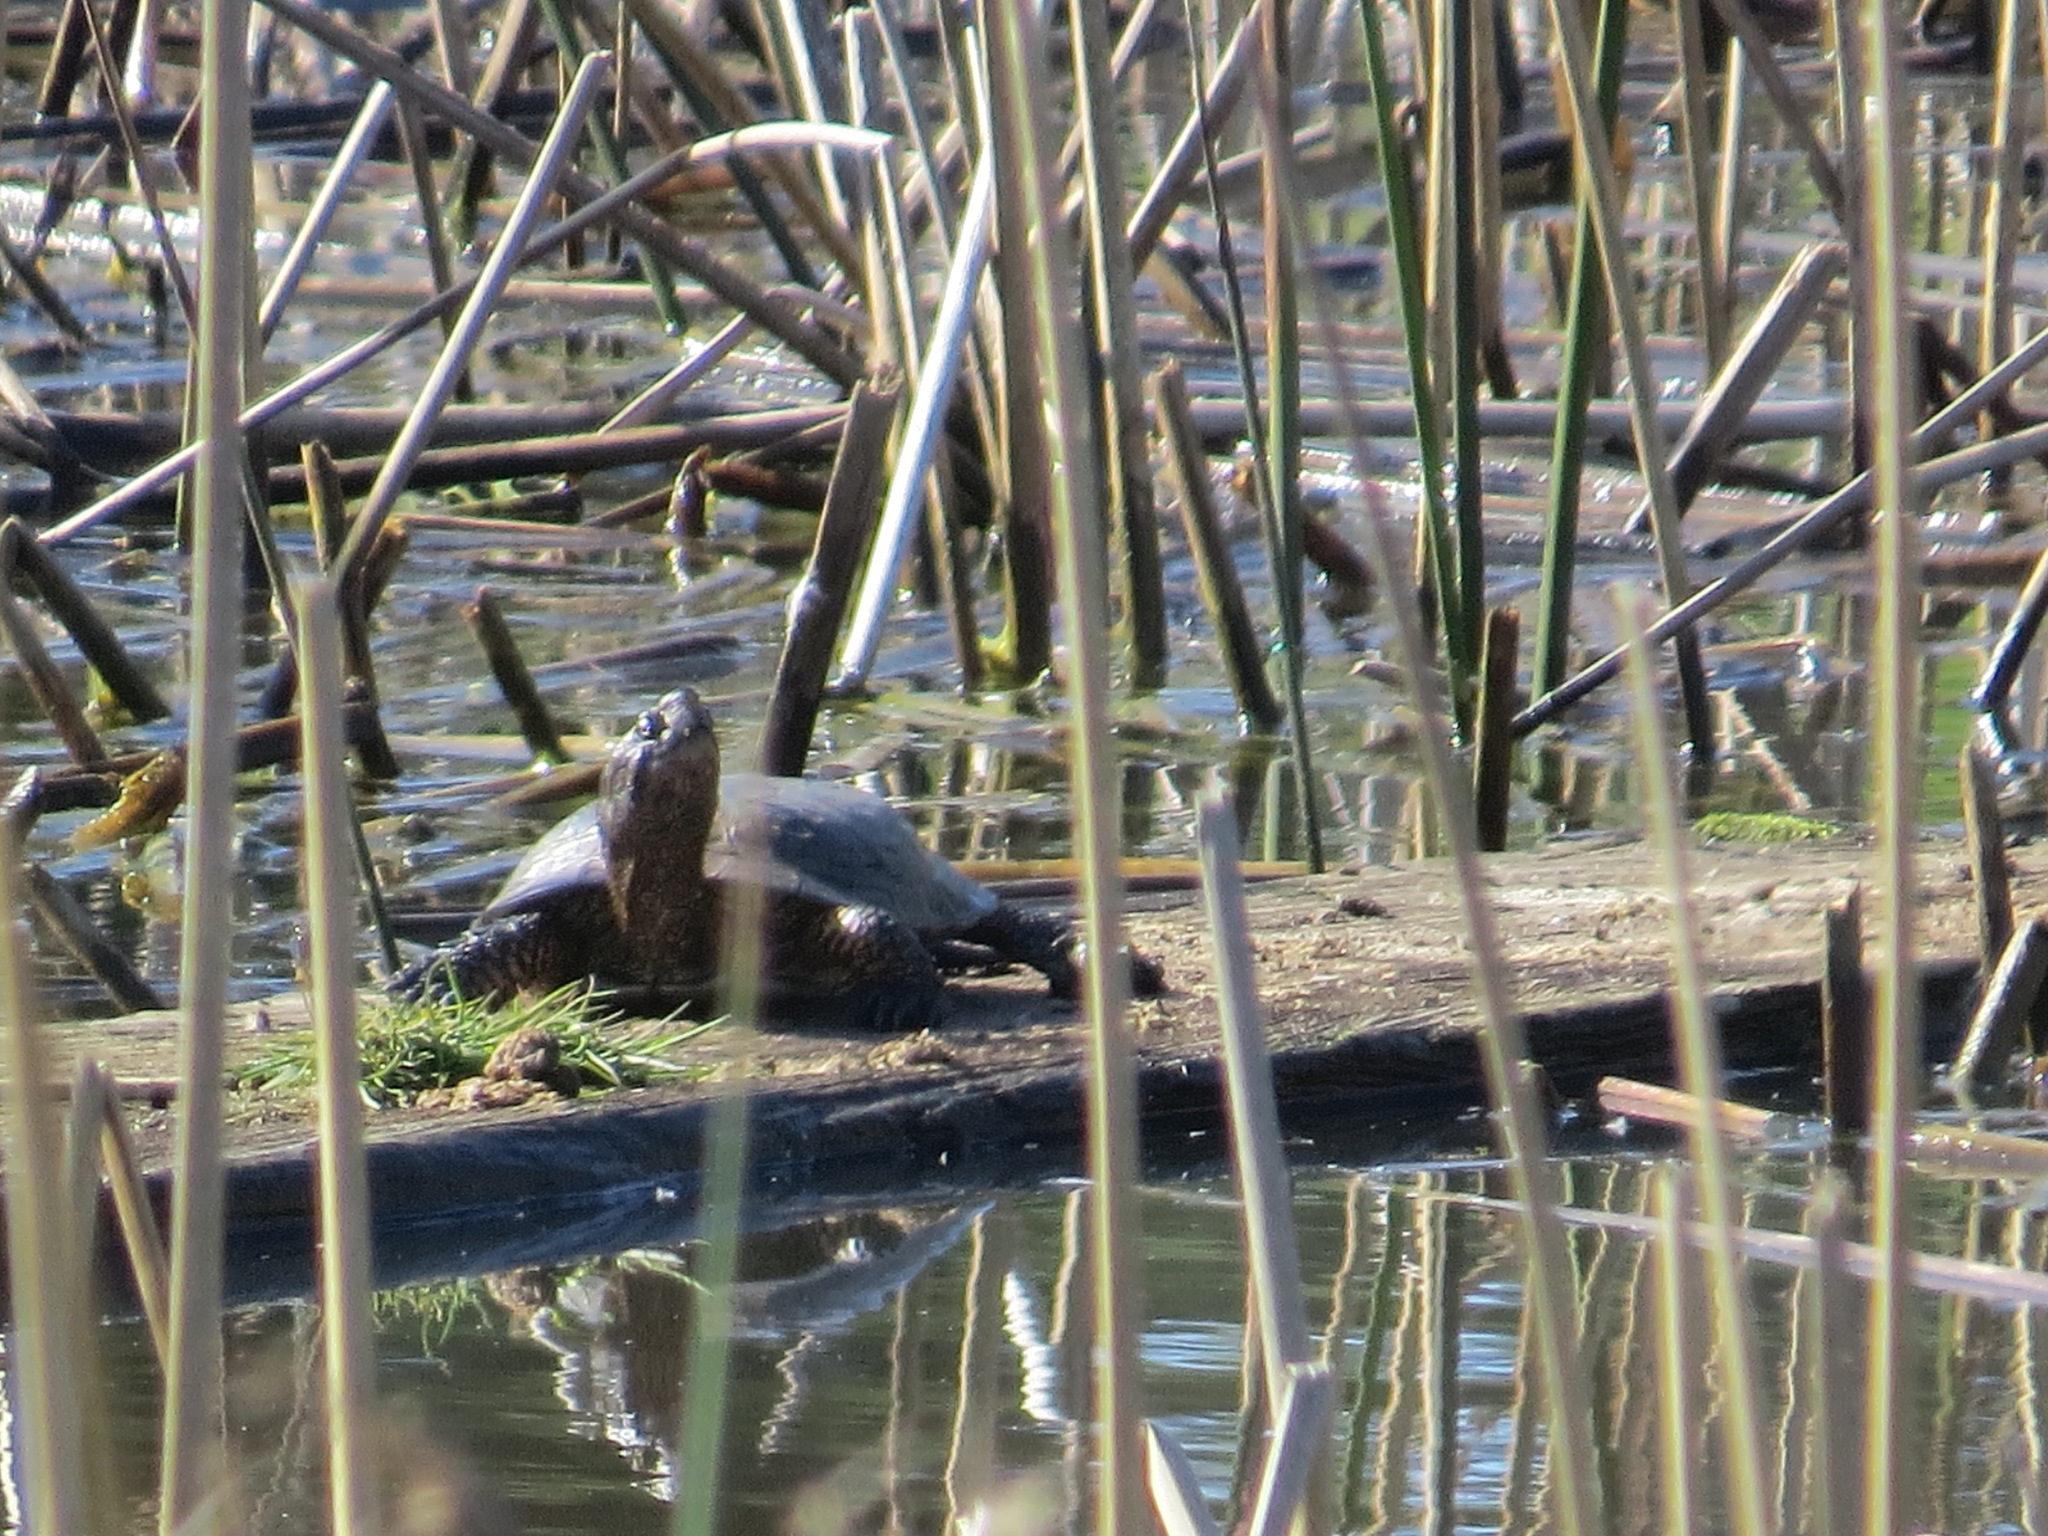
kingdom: Animalia
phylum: Chordata
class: Testudines
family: Emydidae
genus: Actinemys
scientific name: Actinemys marmorata
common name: Western pond turtle
